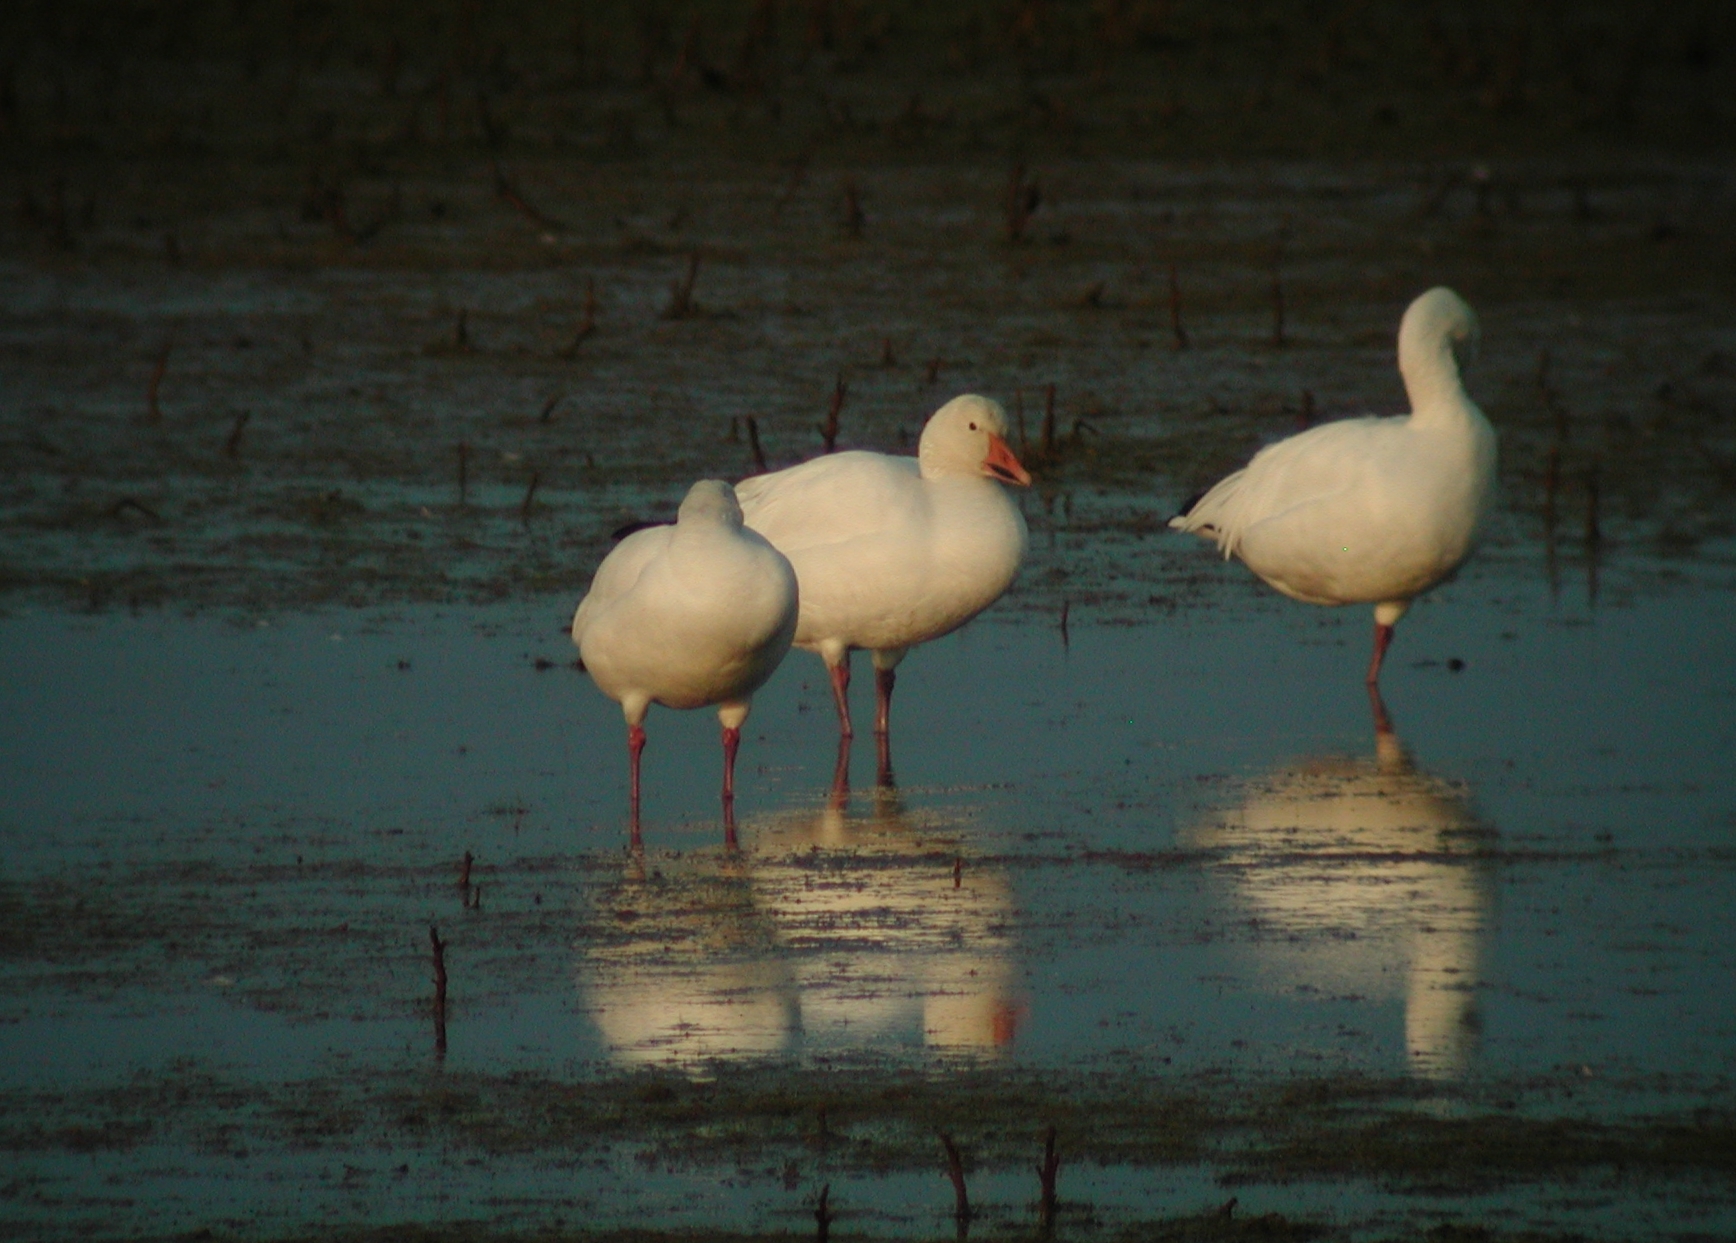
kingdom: Animalia
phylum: Chordata
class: Aves
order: Anseriformes
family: Anatidae
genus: Anser
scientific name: Anser caerulescens
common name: Snow goose
